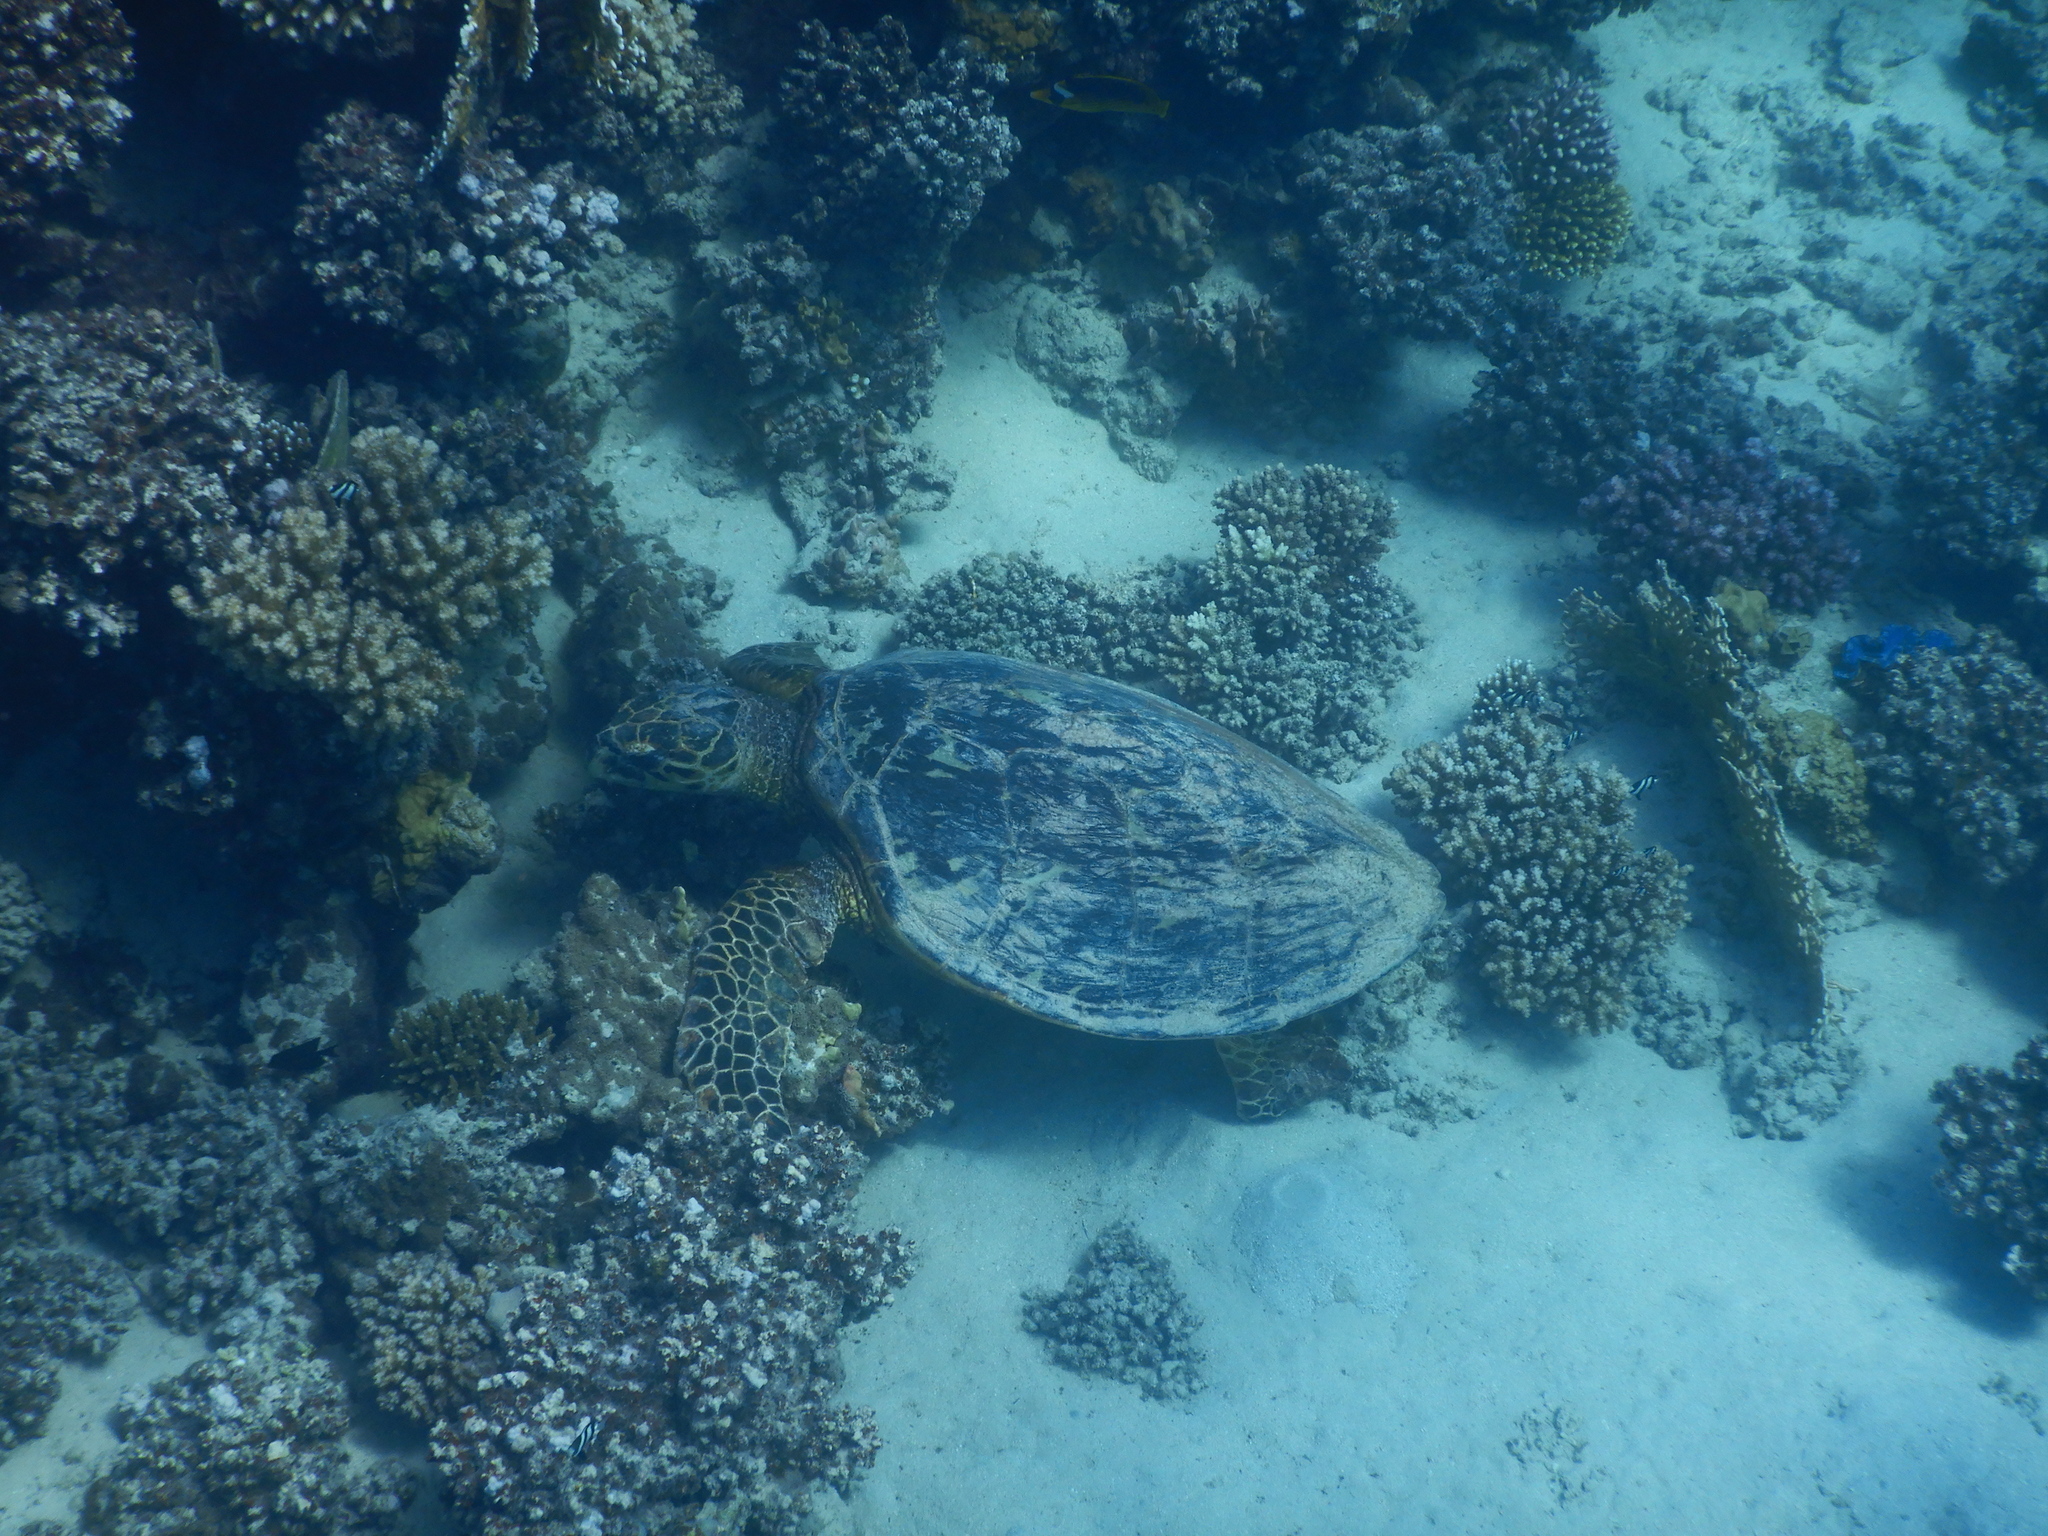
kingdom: Animalia
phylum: Chordata
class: Testudines
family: Cheloniidae
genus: Eretmochelys
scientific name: Eretmochelys imbricata
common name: Hawksbill turtle
